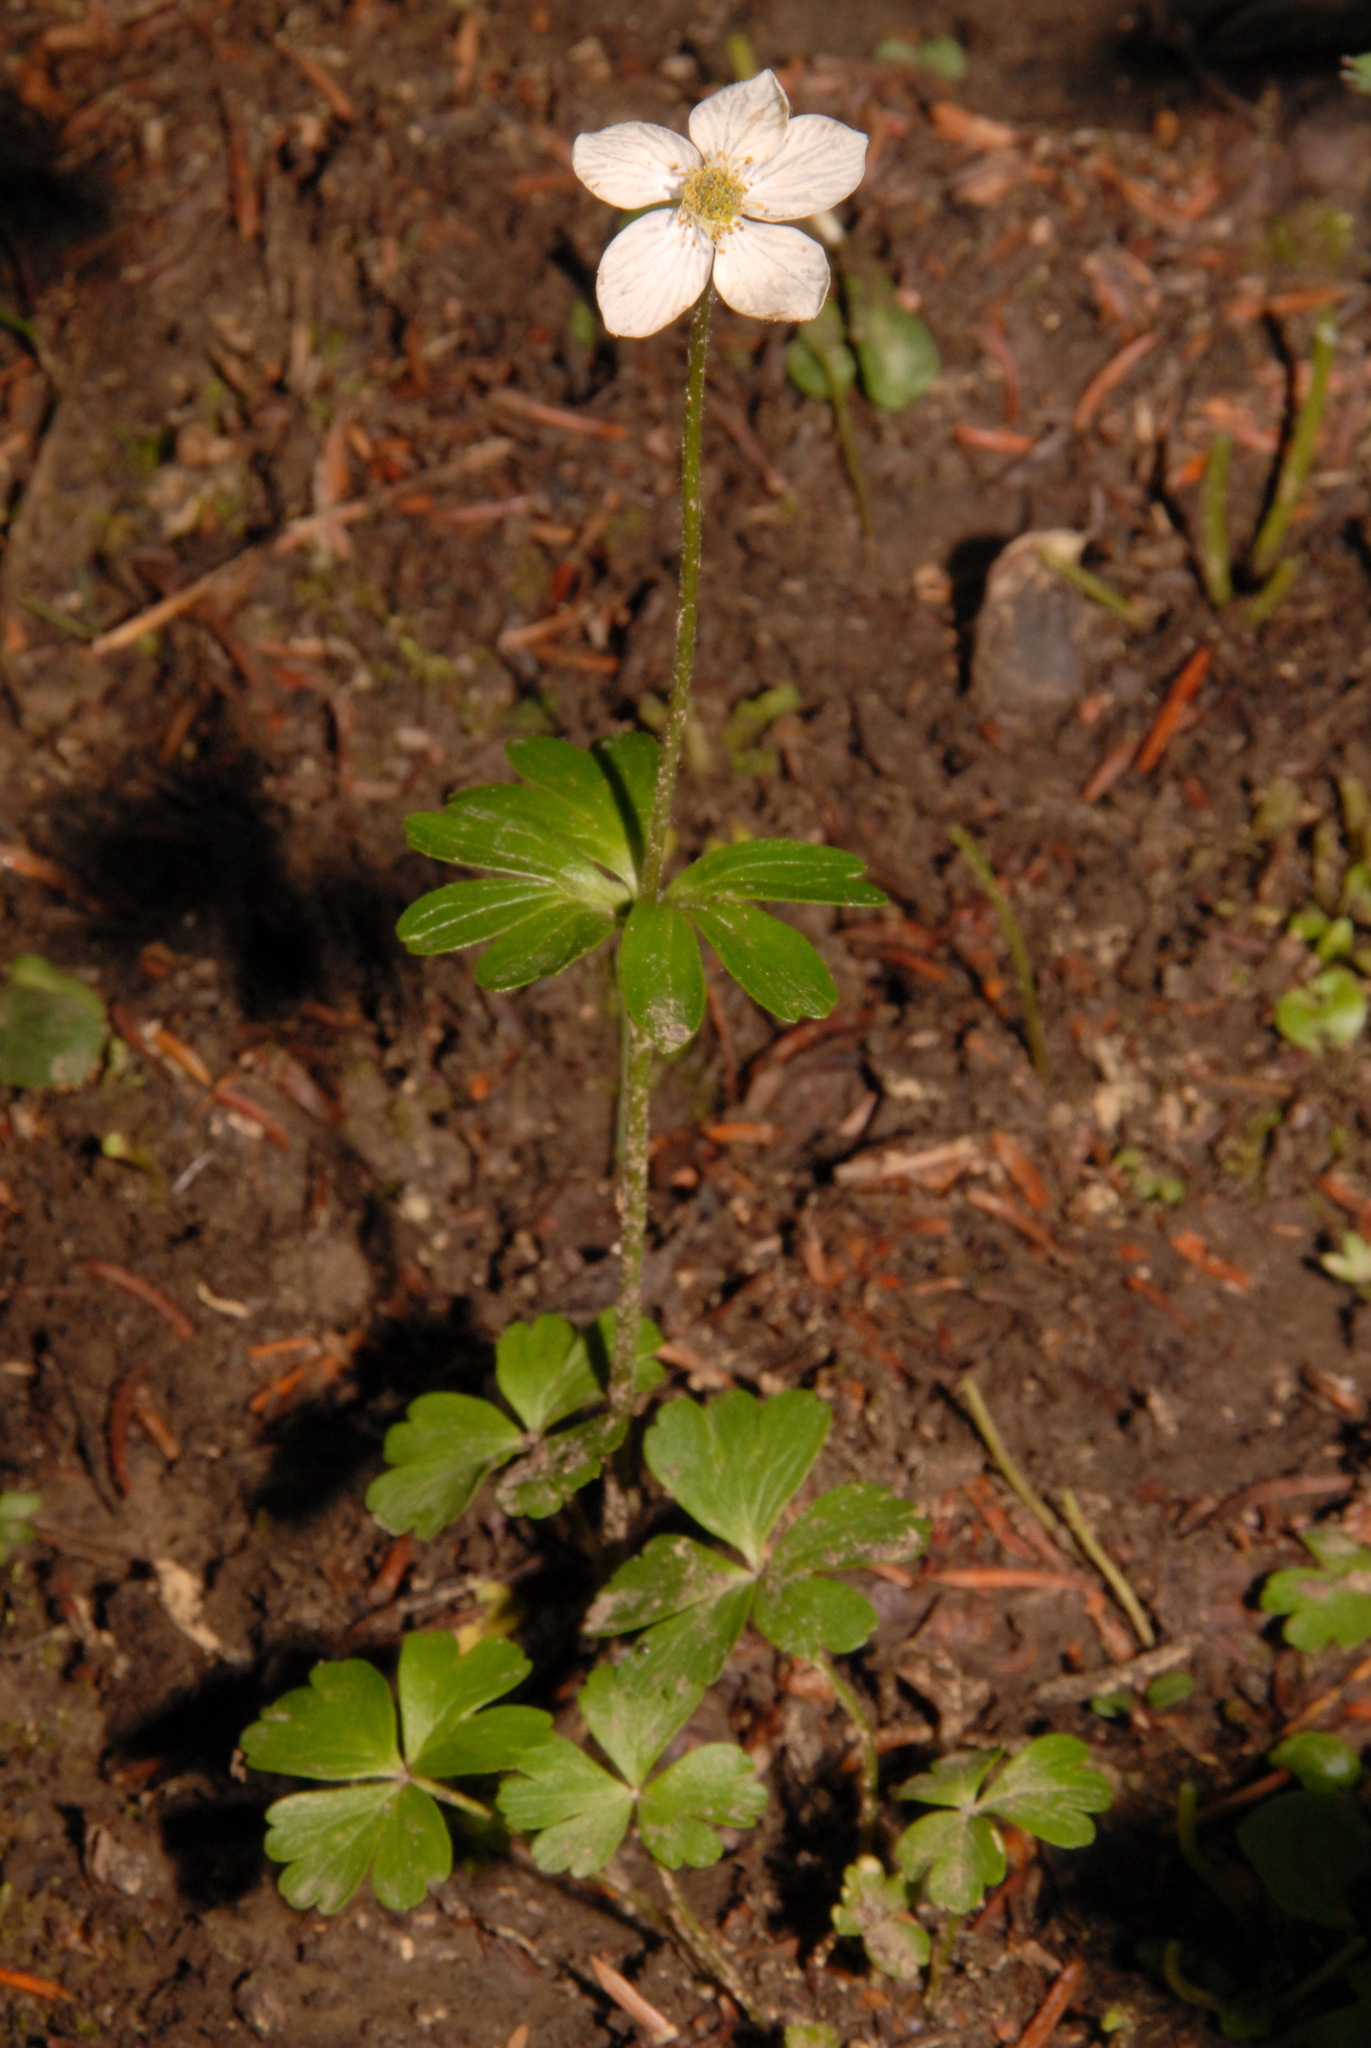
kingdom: Plantae
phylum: Tracheophyta
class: Magnoliopsida
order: Ranunculales
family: Ranunculaceae
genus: Anemone
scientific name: Anemone parviflora
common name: Northern anemone
